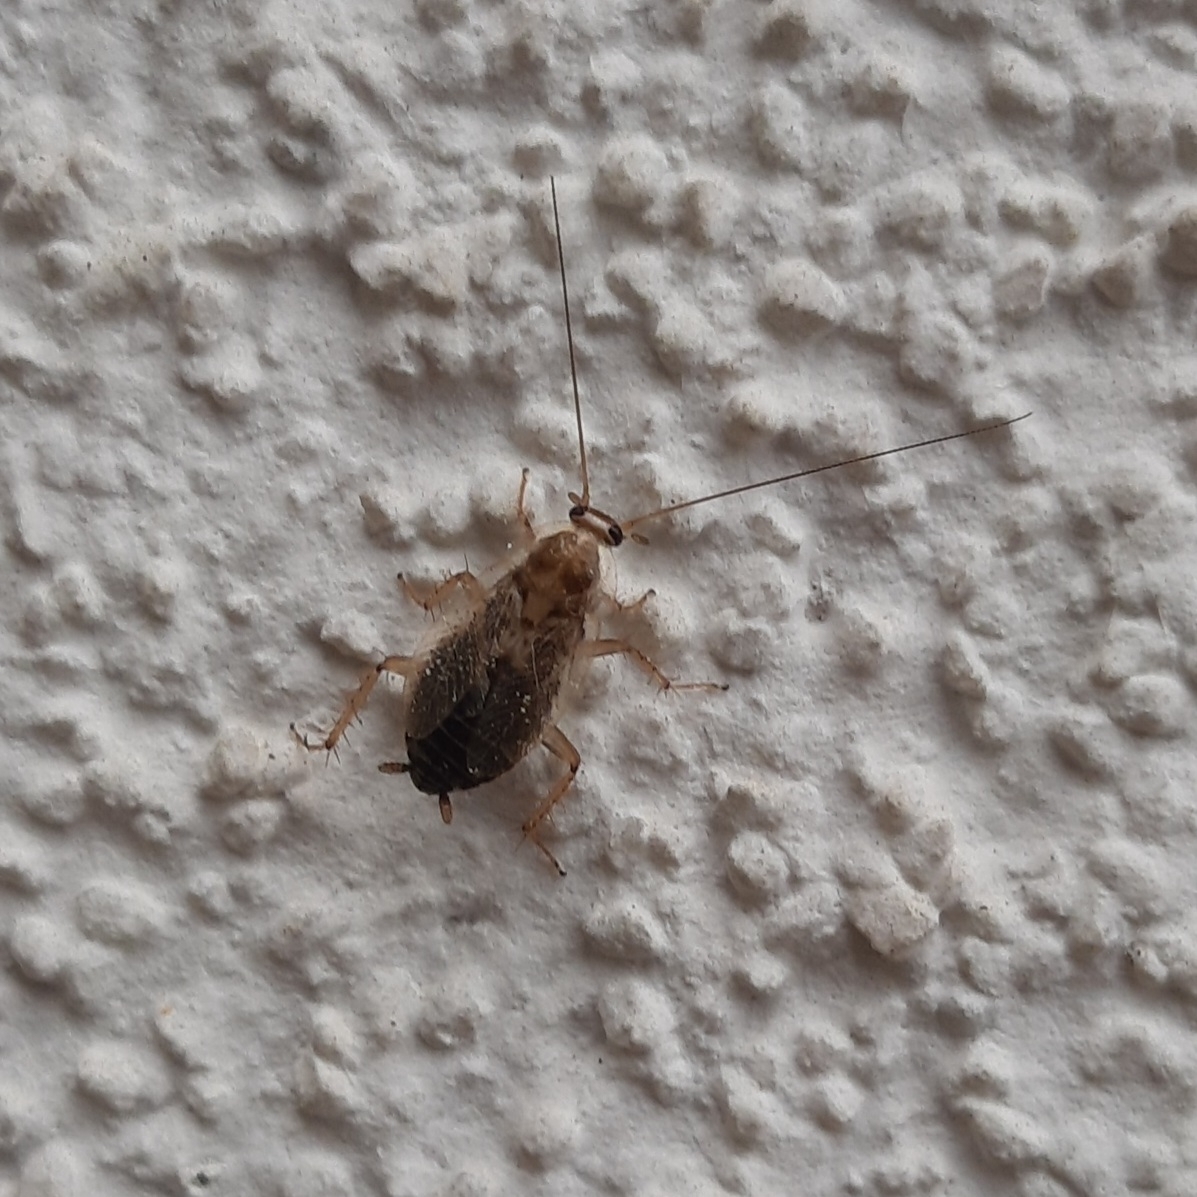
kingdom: Animalia
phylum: Arthropoda
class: Insecta
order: Blattodea
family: Ectobiidae
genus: Planuncus
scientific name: Planuncus tingitanus
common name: Variable cockroach
